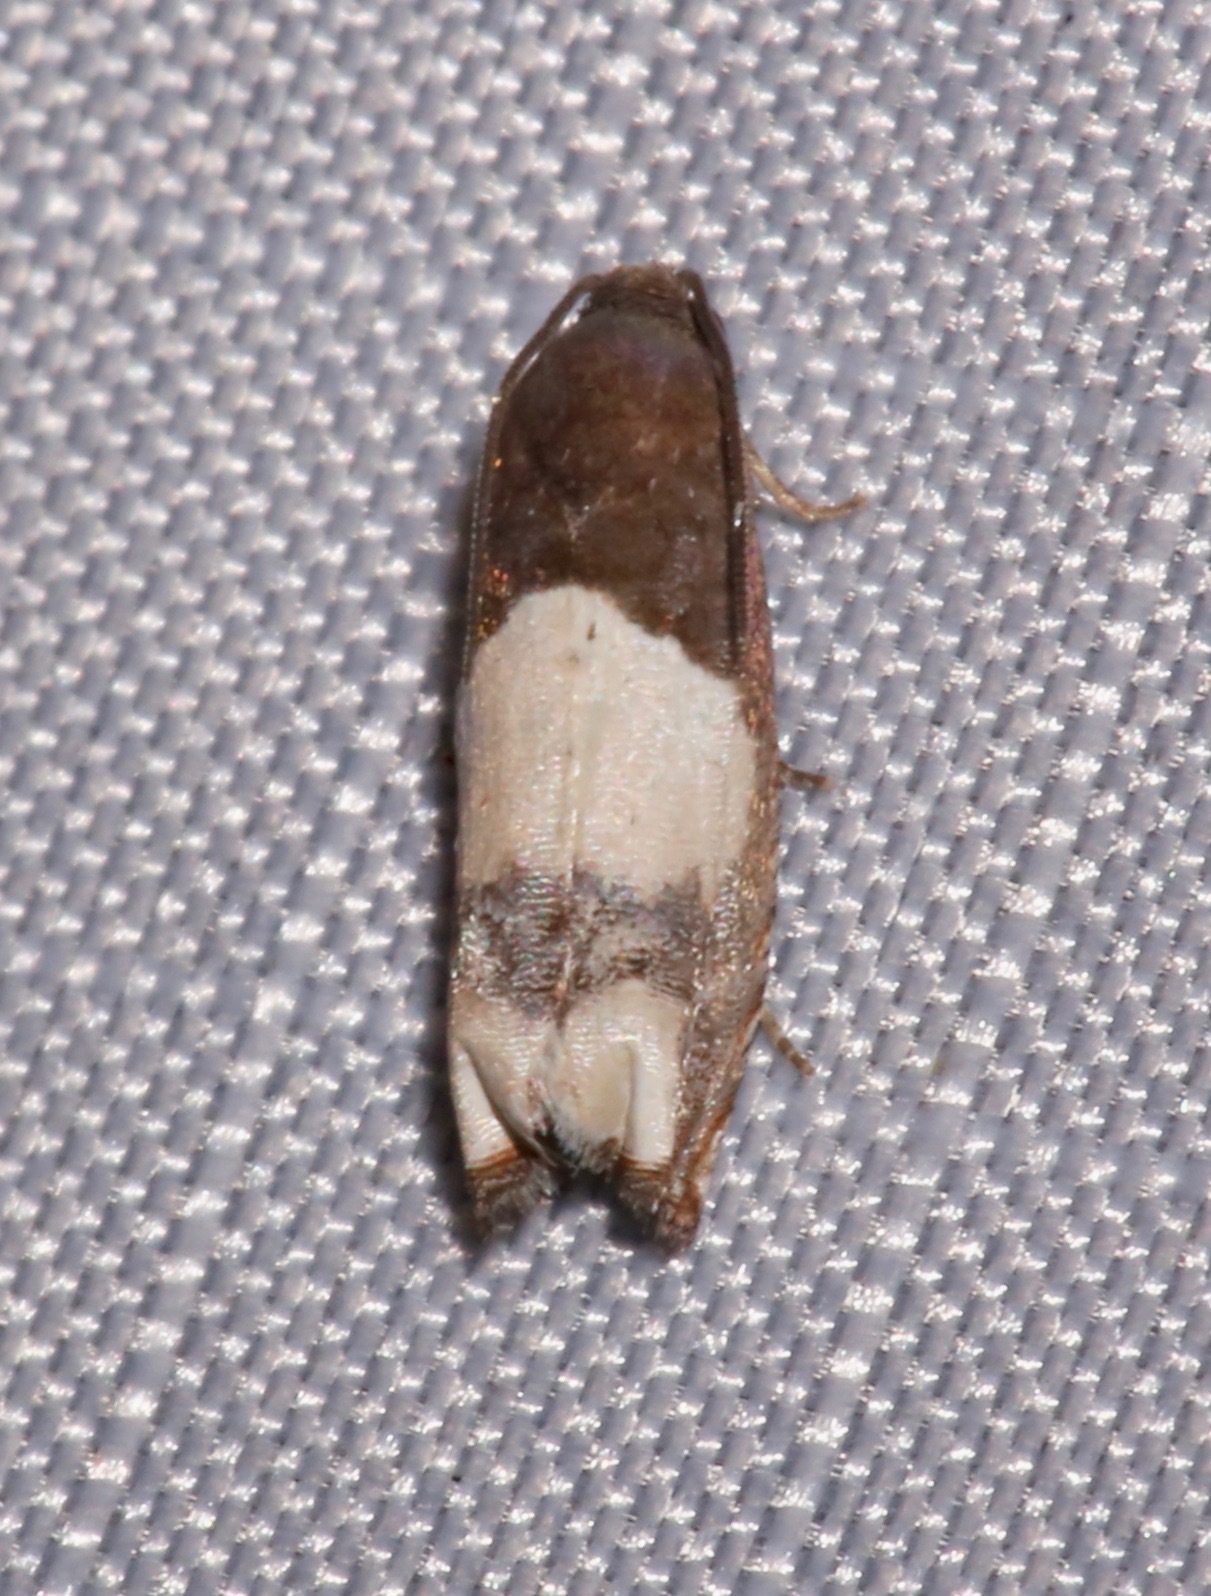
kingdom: Animalia
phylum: Arthropoda
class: Insecta
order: Lepidoptera
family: Tortricidae
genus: Epiblema
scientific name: Epiblema scudderiana
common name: Goldenrod gall moth
